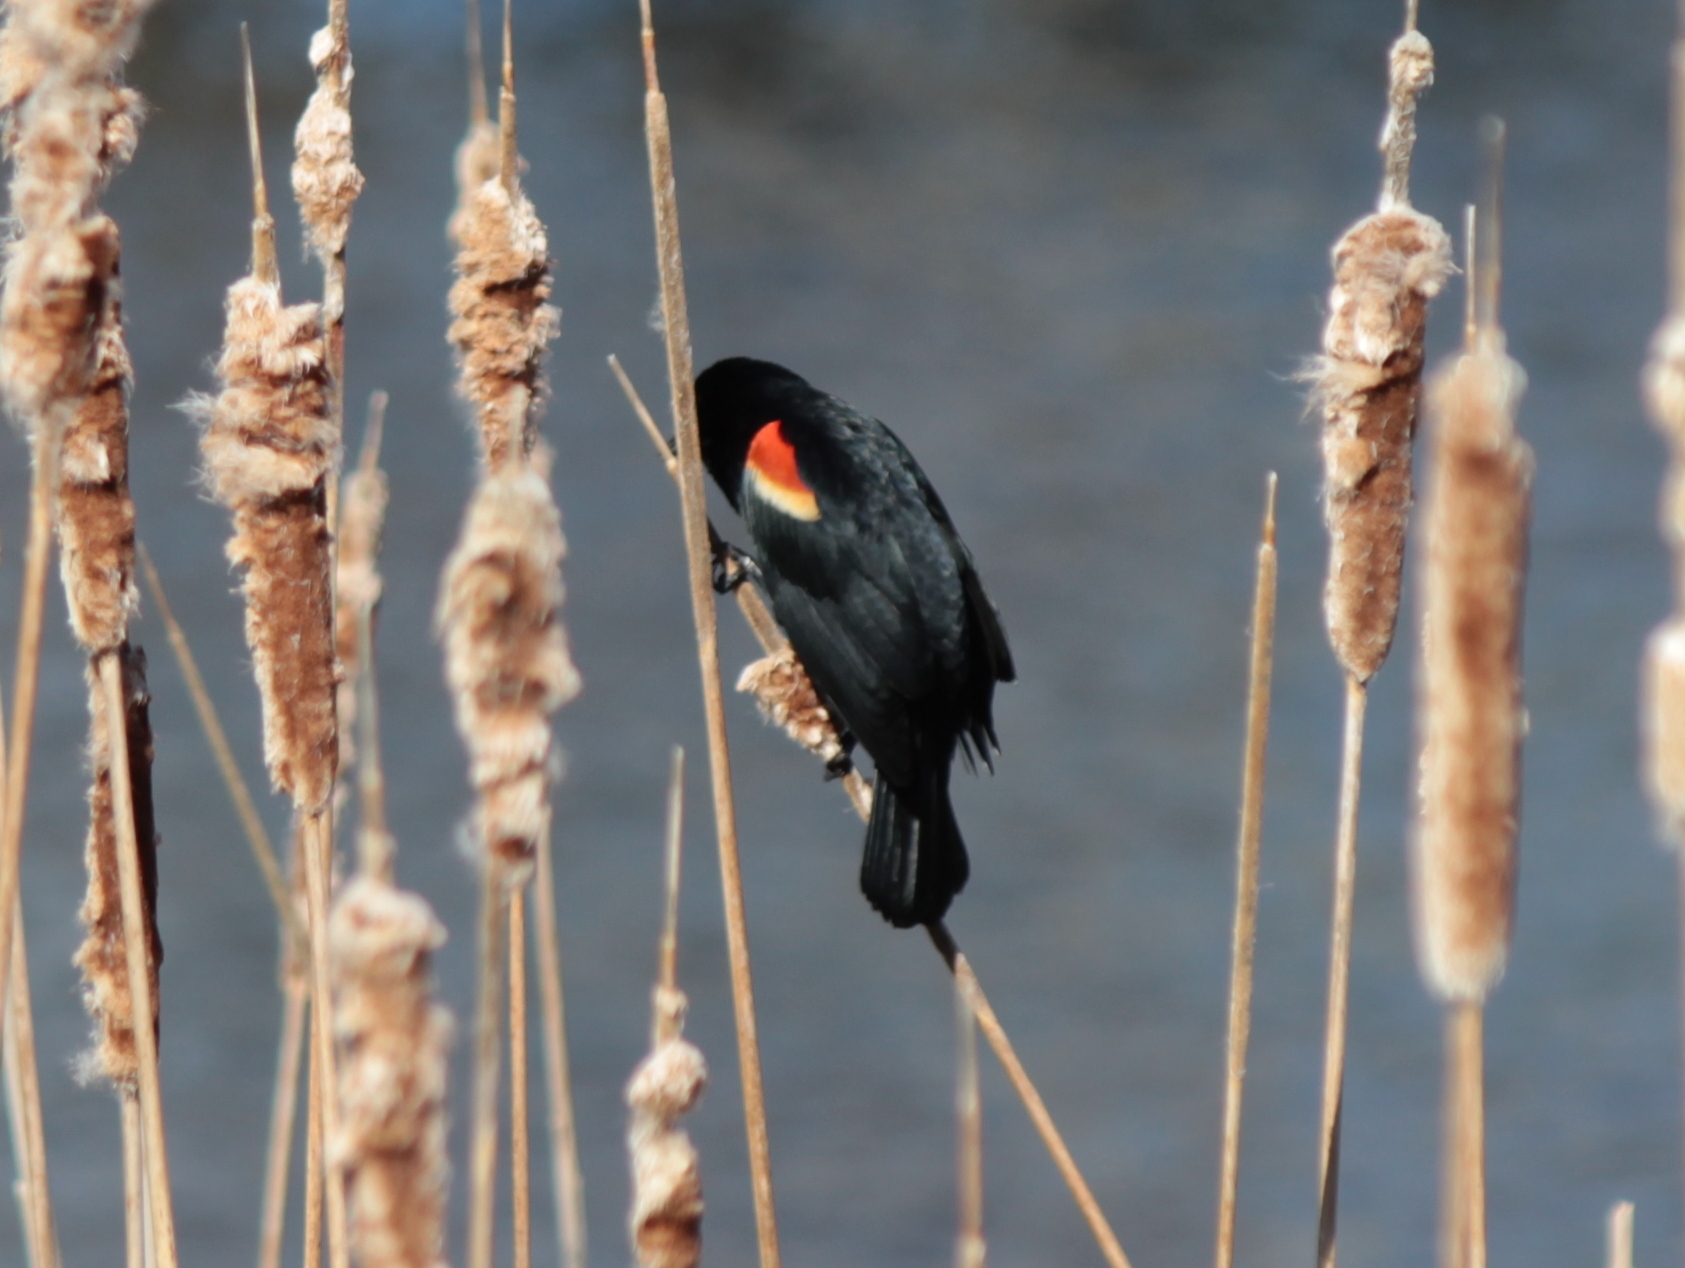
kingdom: Animalia
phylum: Chordata
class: Aves
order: Passeriformes
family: Icteridae
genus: Agelaius
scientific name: Agelaius phoeniceus
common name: Red-winged blackbird
